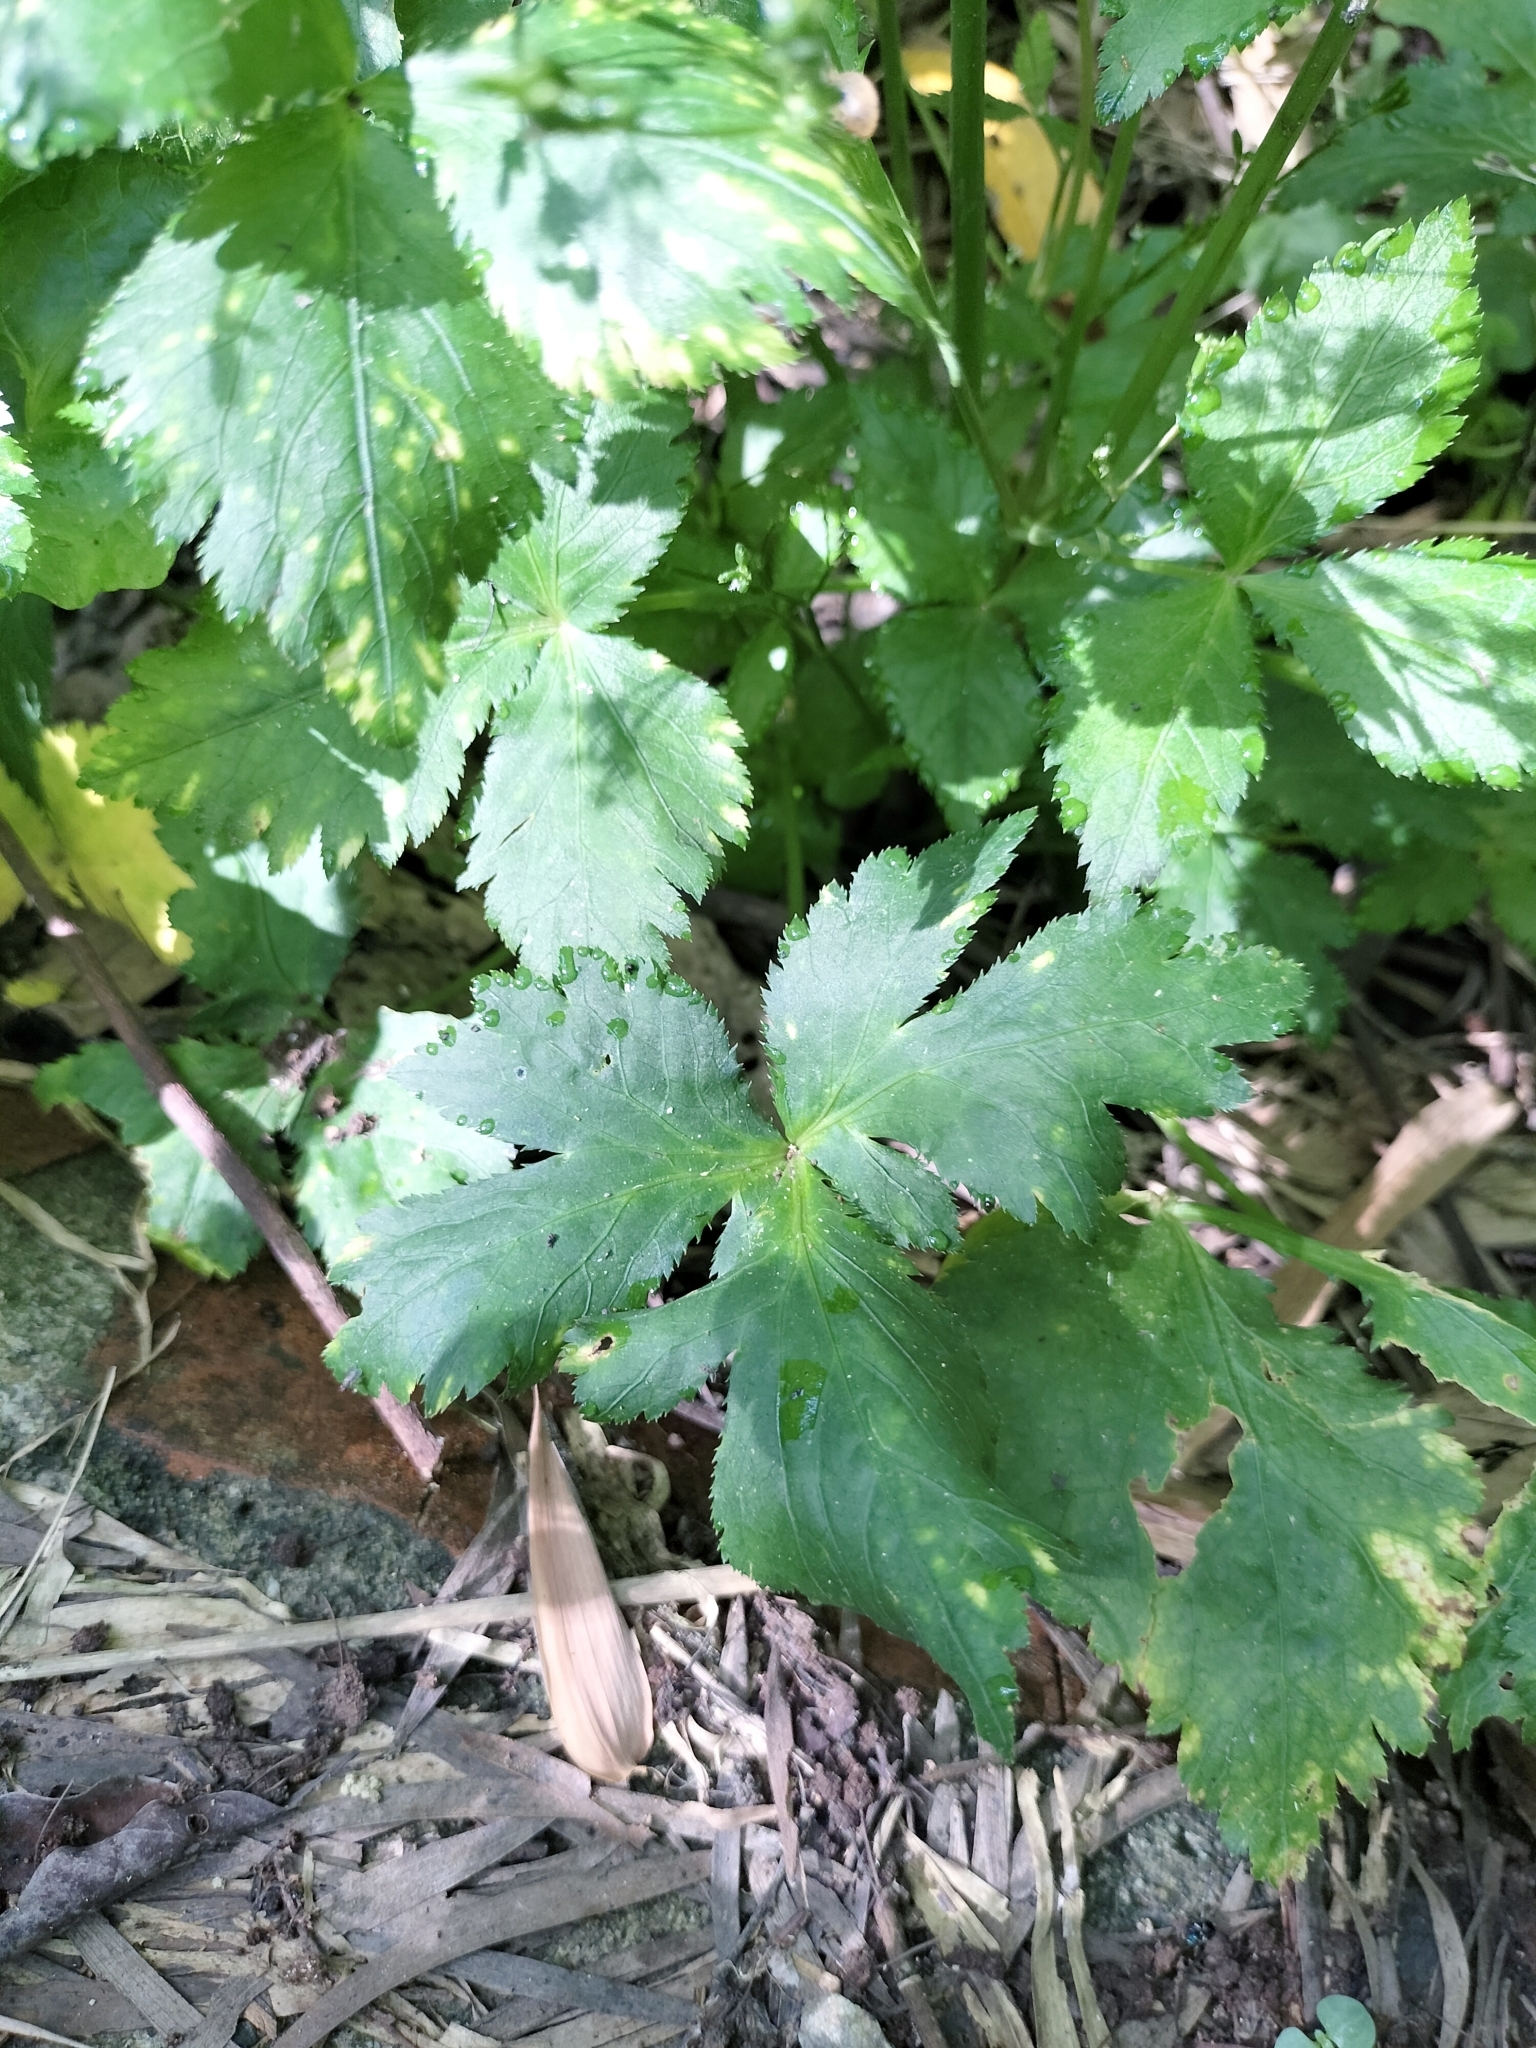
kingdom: Plantae
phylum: Tracheophyta
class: Magnoliopsida
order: Apiales
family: Apiaceae
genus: Cryptotaenia
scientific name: Cryptotaenia japonica
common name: Japanese cryptotaenia
